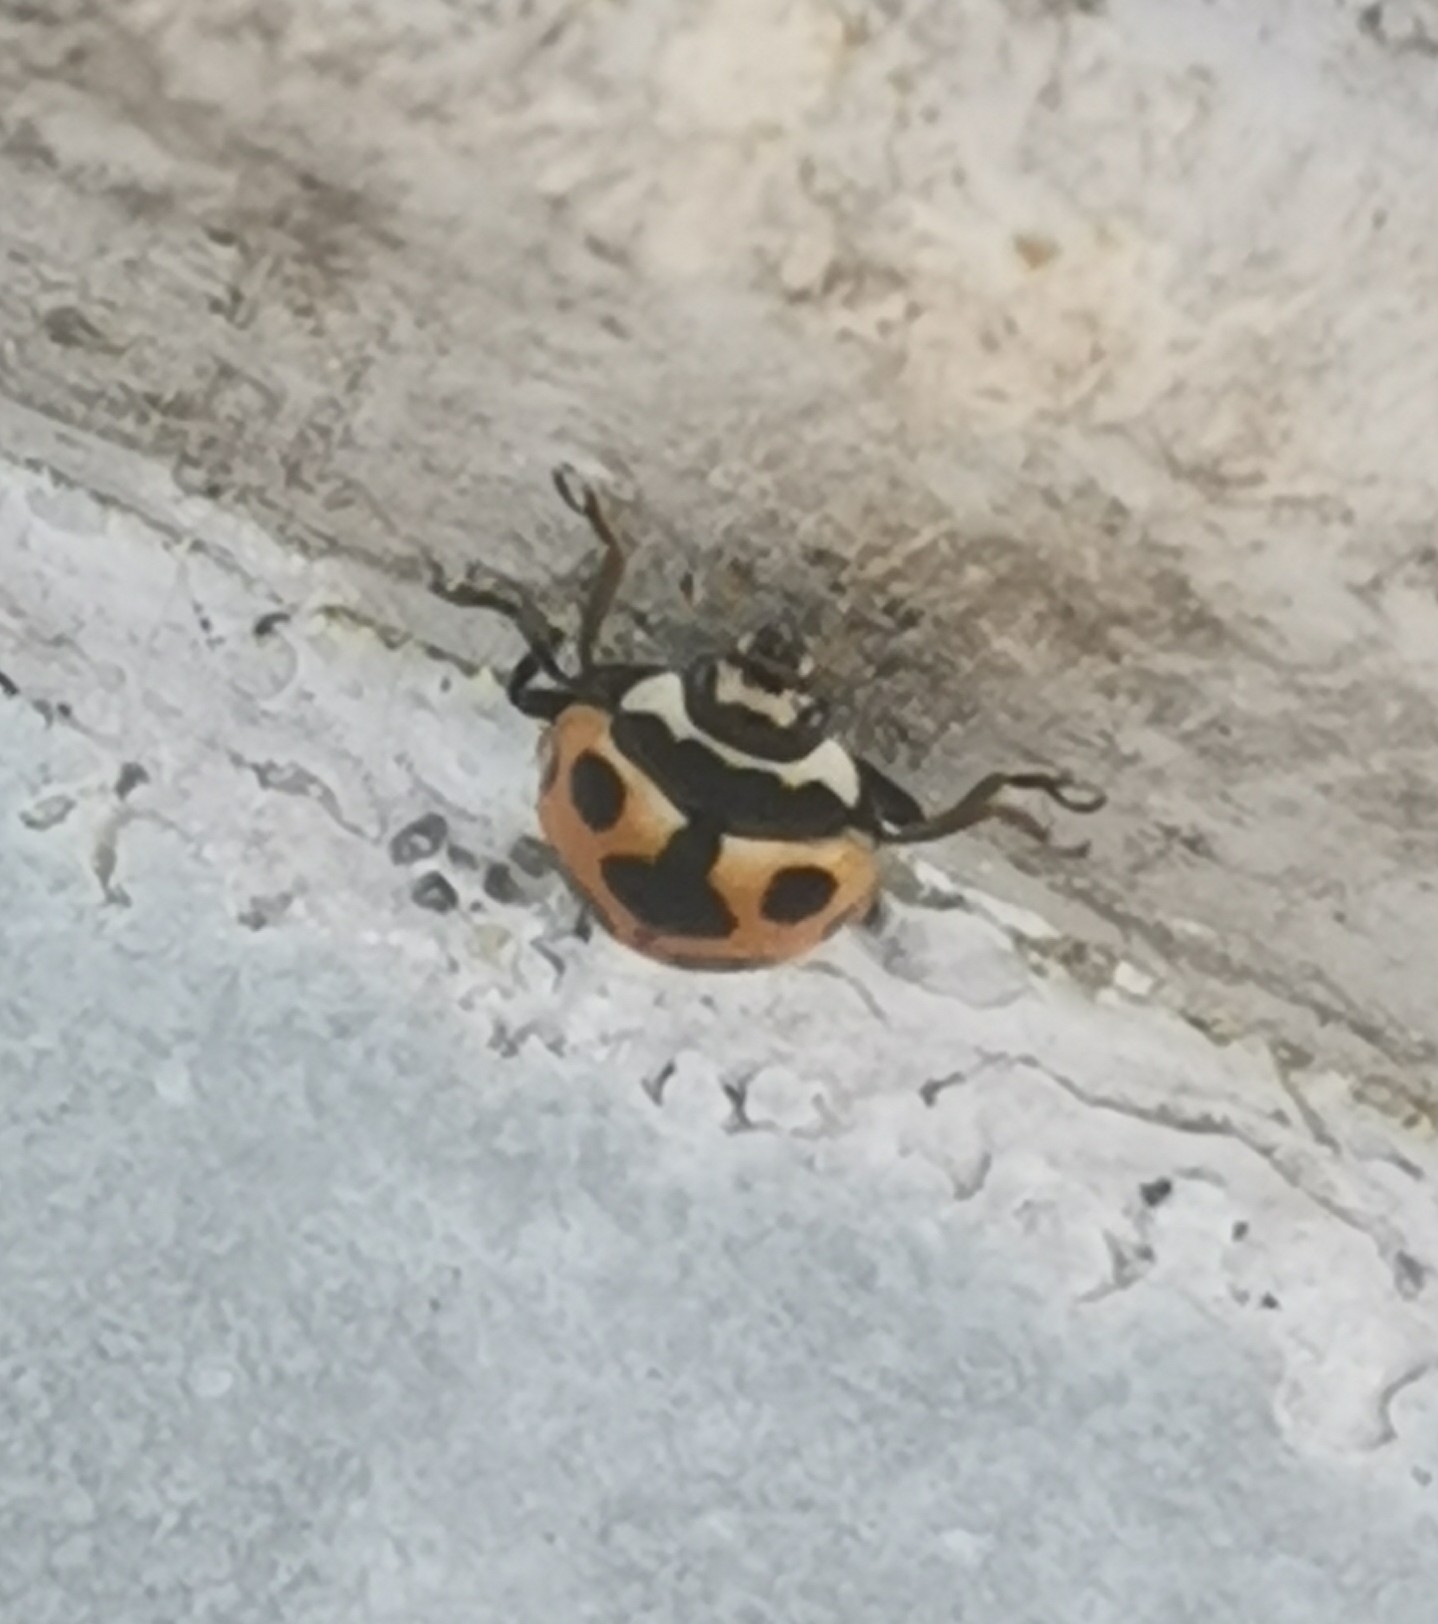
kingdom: Animalia
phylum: Arthropoda
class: Insecta
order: Coleoptera
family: Coccinellidae
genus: Ceratomegilla
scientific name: Ceratomegilla notata
